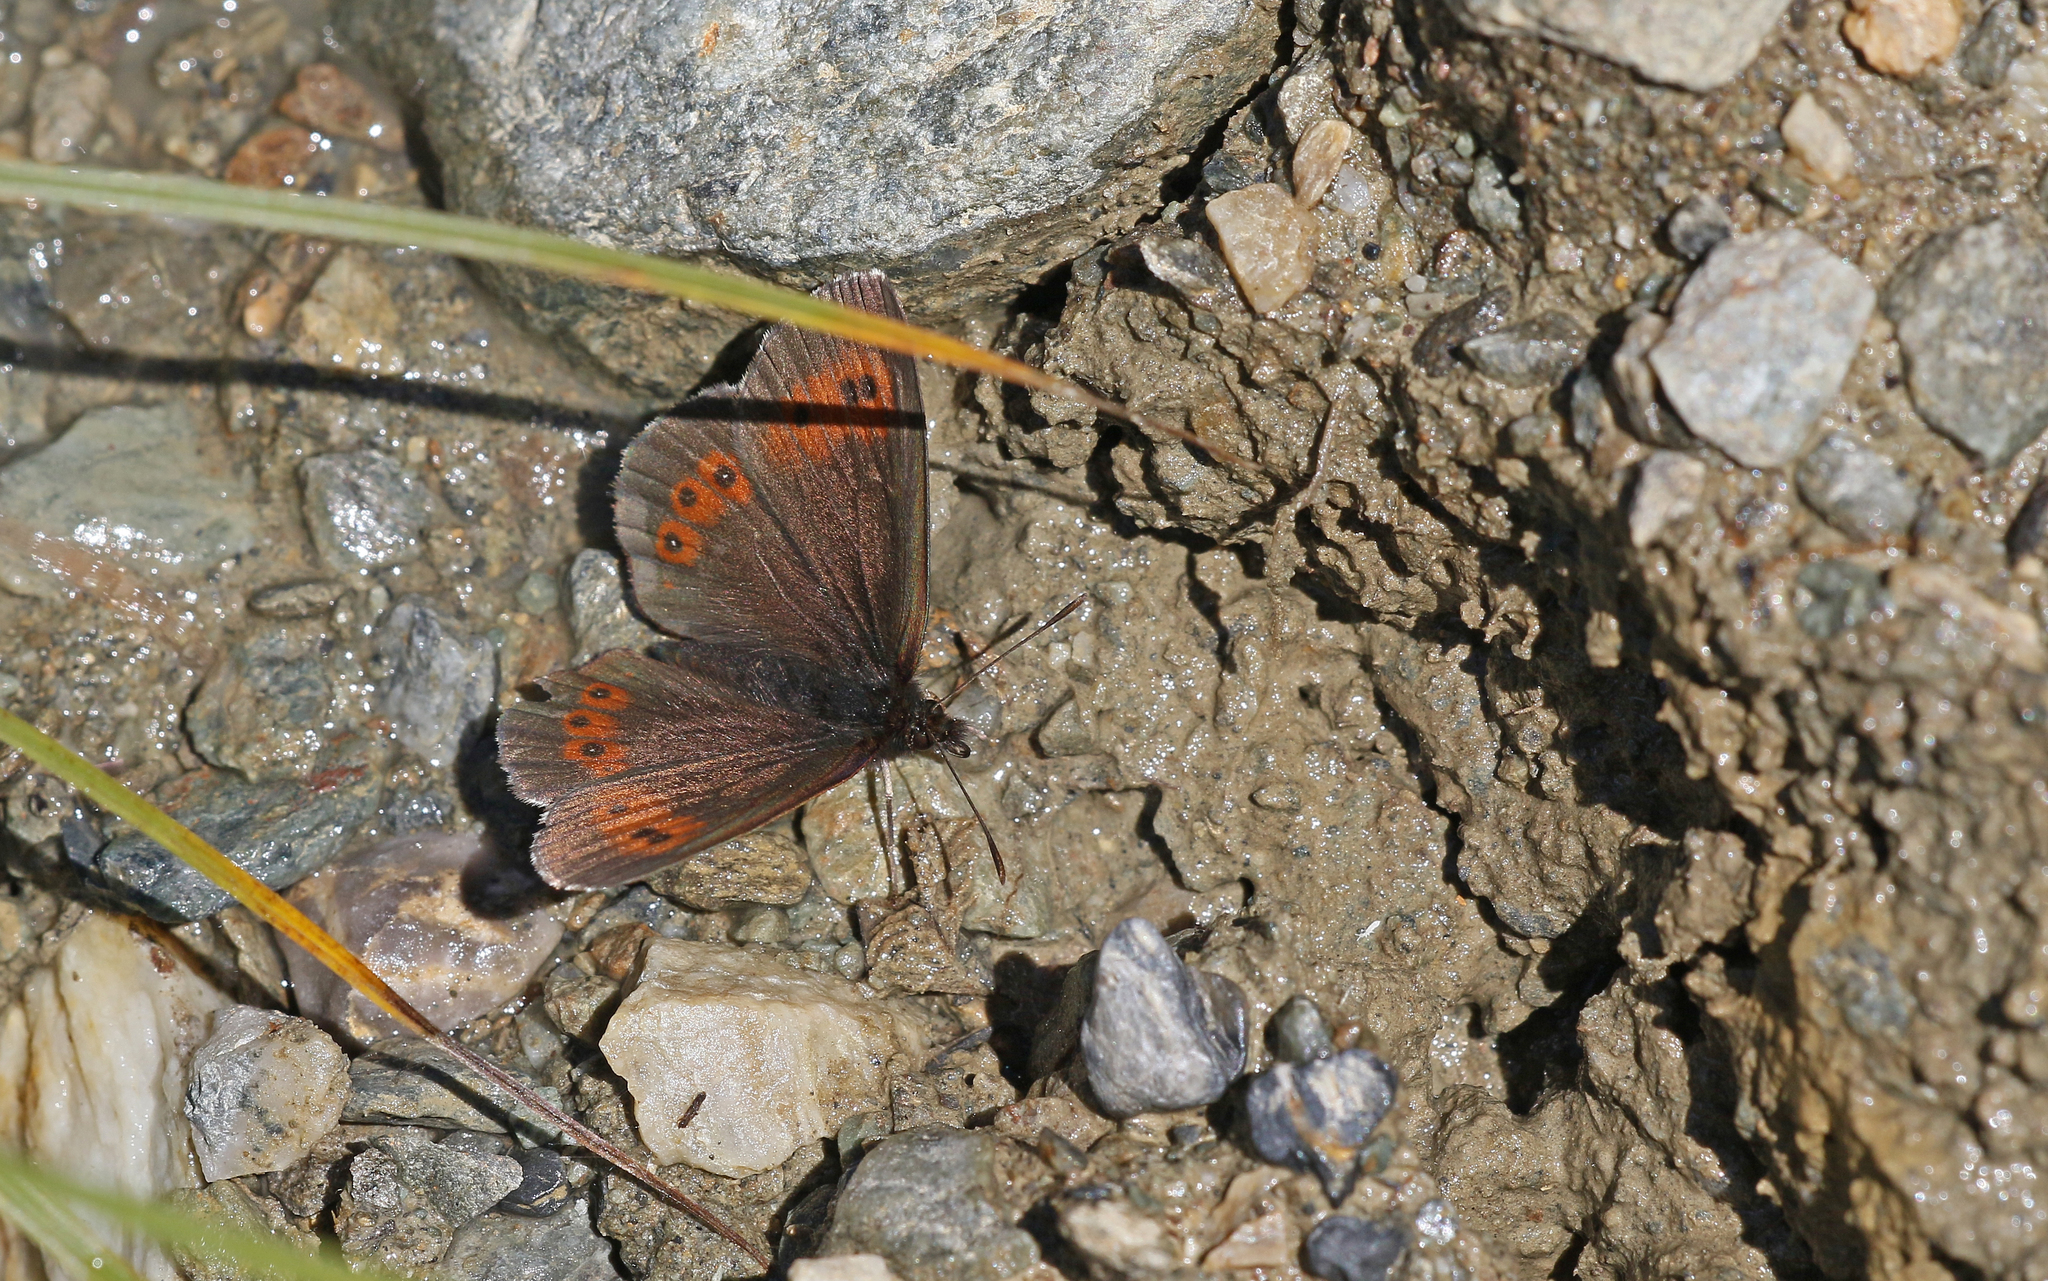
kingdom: Animalia
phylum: Arthropoda
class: Insecta
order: Lepidoptera
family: Nymphalidae
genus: Erebia
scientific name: Erebia euryale
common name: Large ringlet
